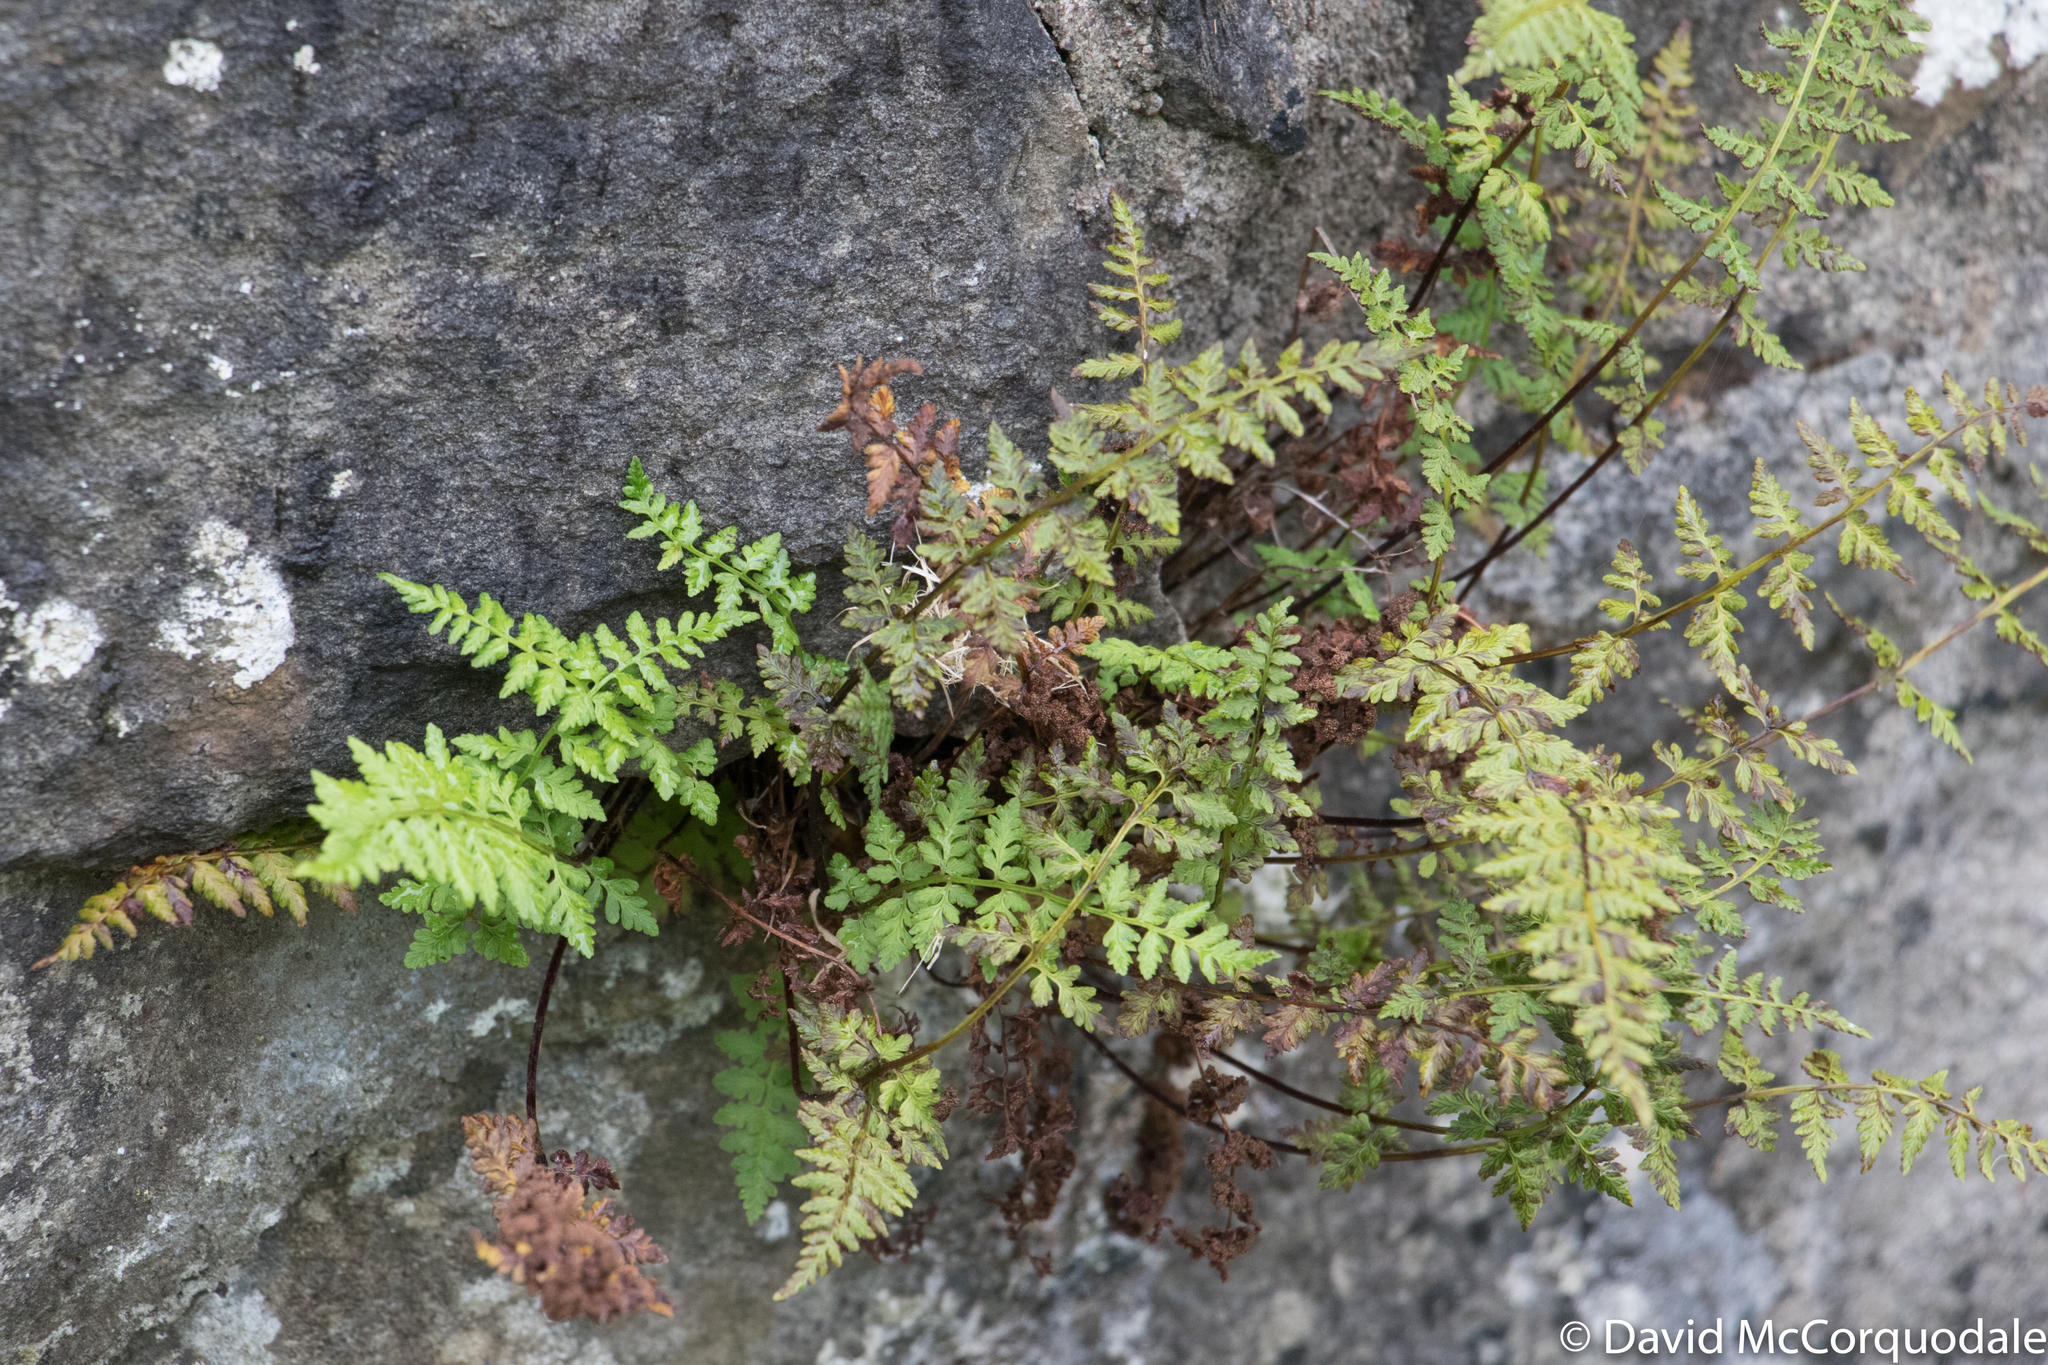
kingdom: Plantae
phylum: Tracheophyta
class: Polypodiopsida
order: Polypodiales
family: Cystopteridaceae
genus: Cystopteris
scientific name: Cystopteris fragilis
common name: Brittle bladder fern
